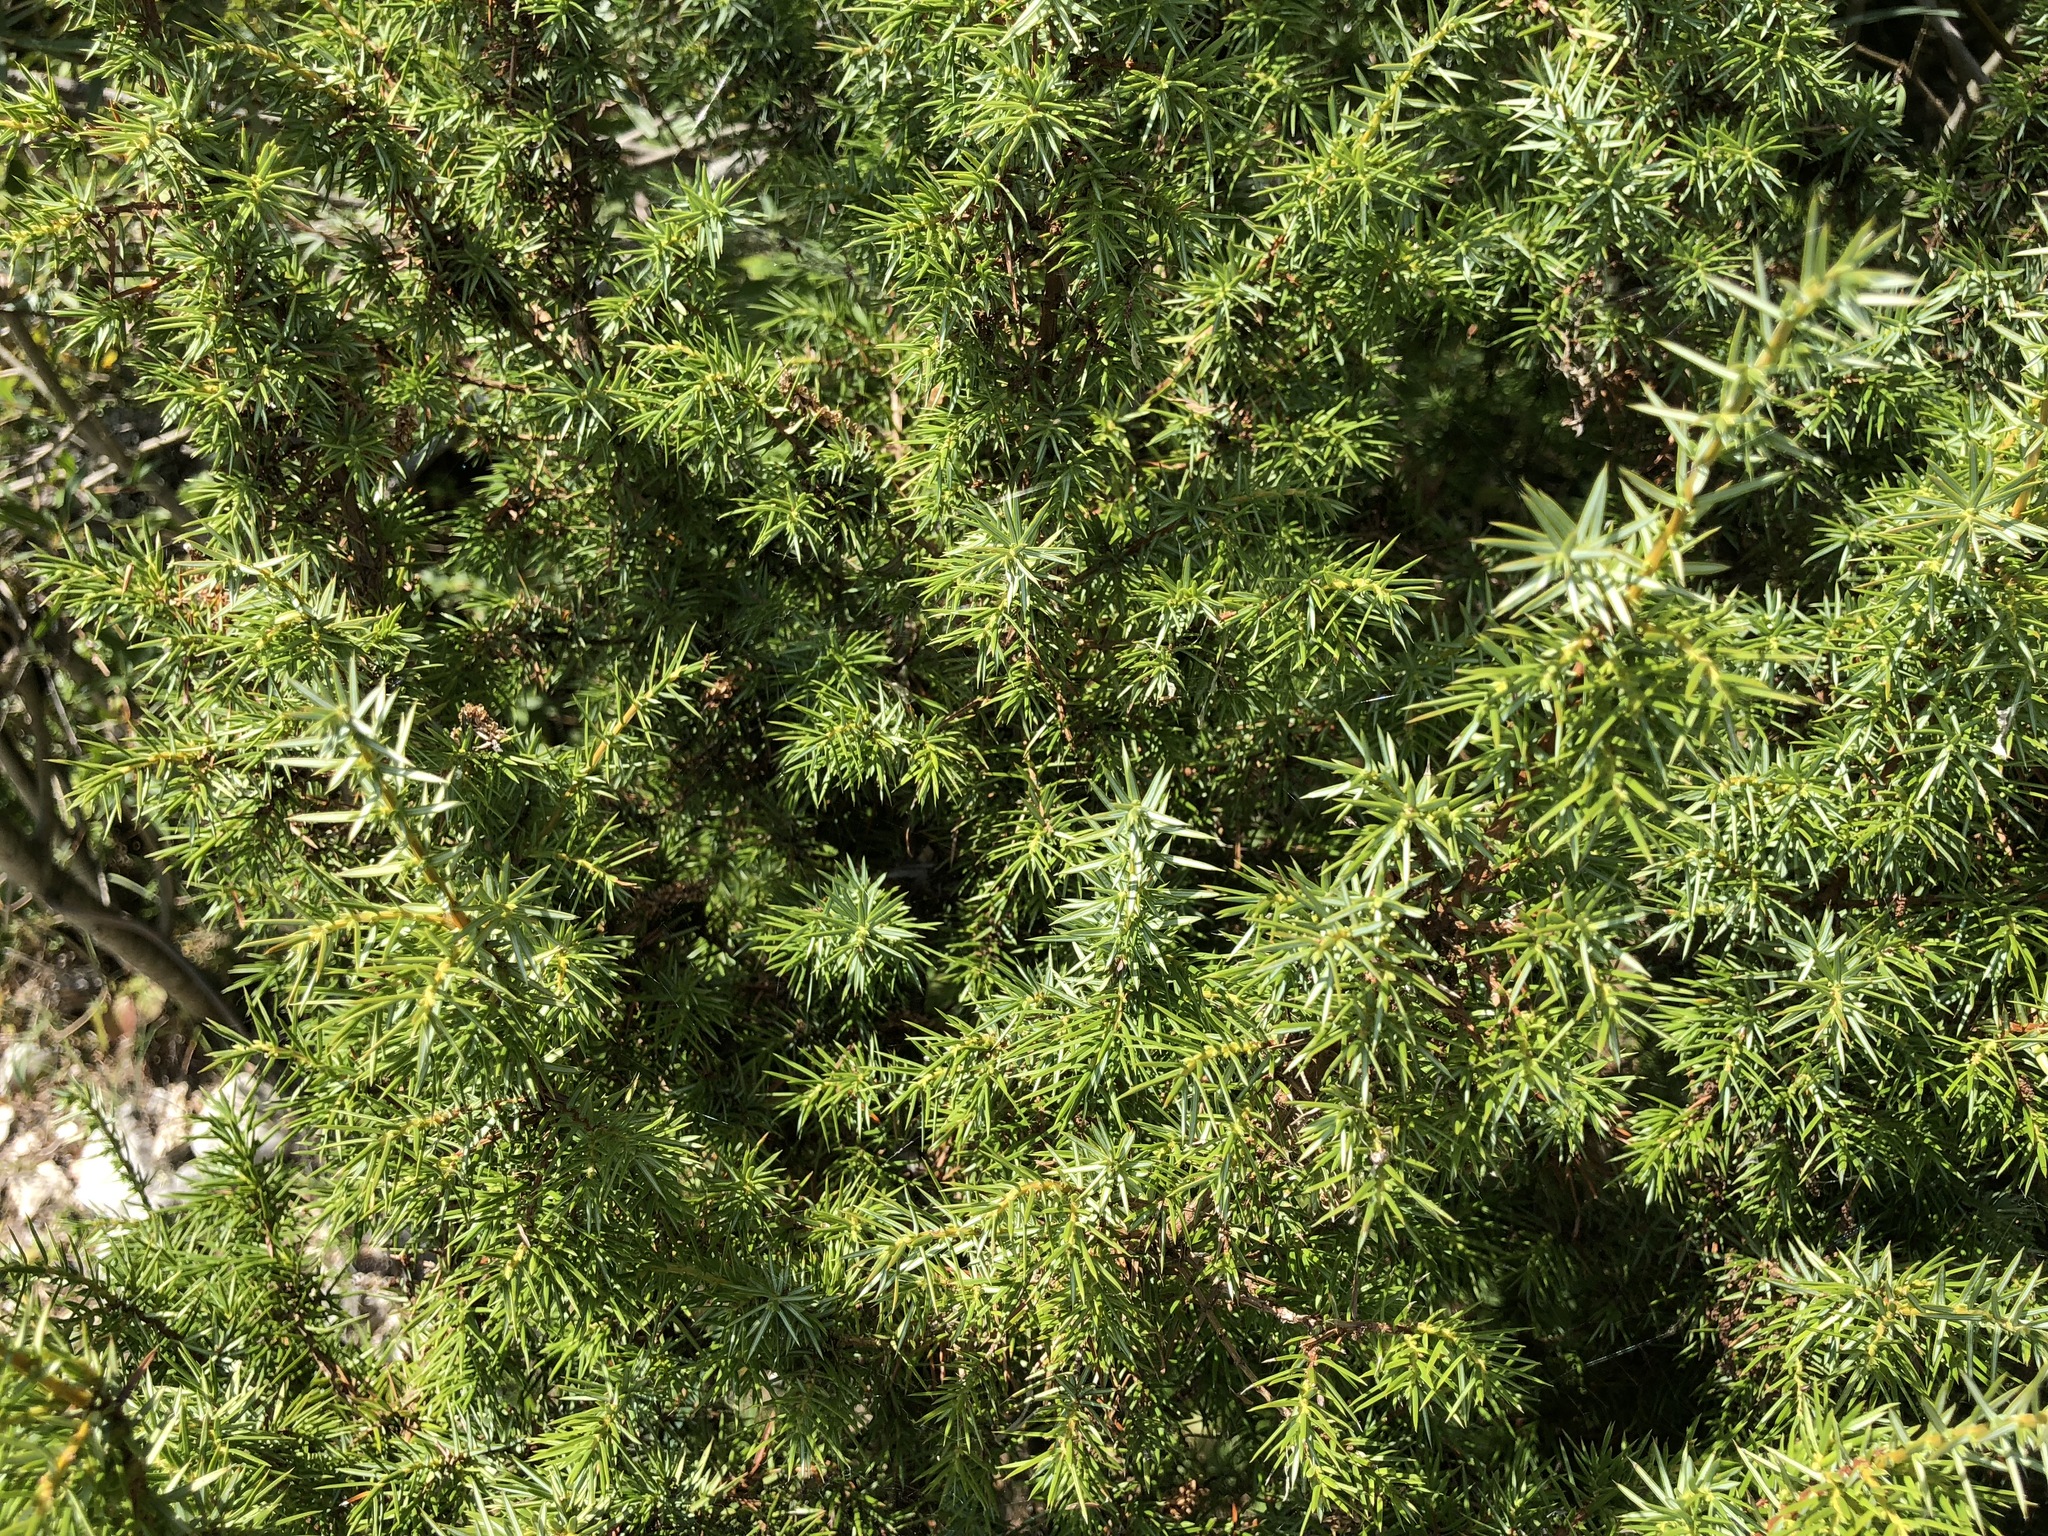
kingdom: Plantae
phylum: Tracheophyta
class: Pinopsida
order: Pinales
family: Cupressaceae
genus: Juniperus
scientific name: Juniperus communis
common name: Common juniper
